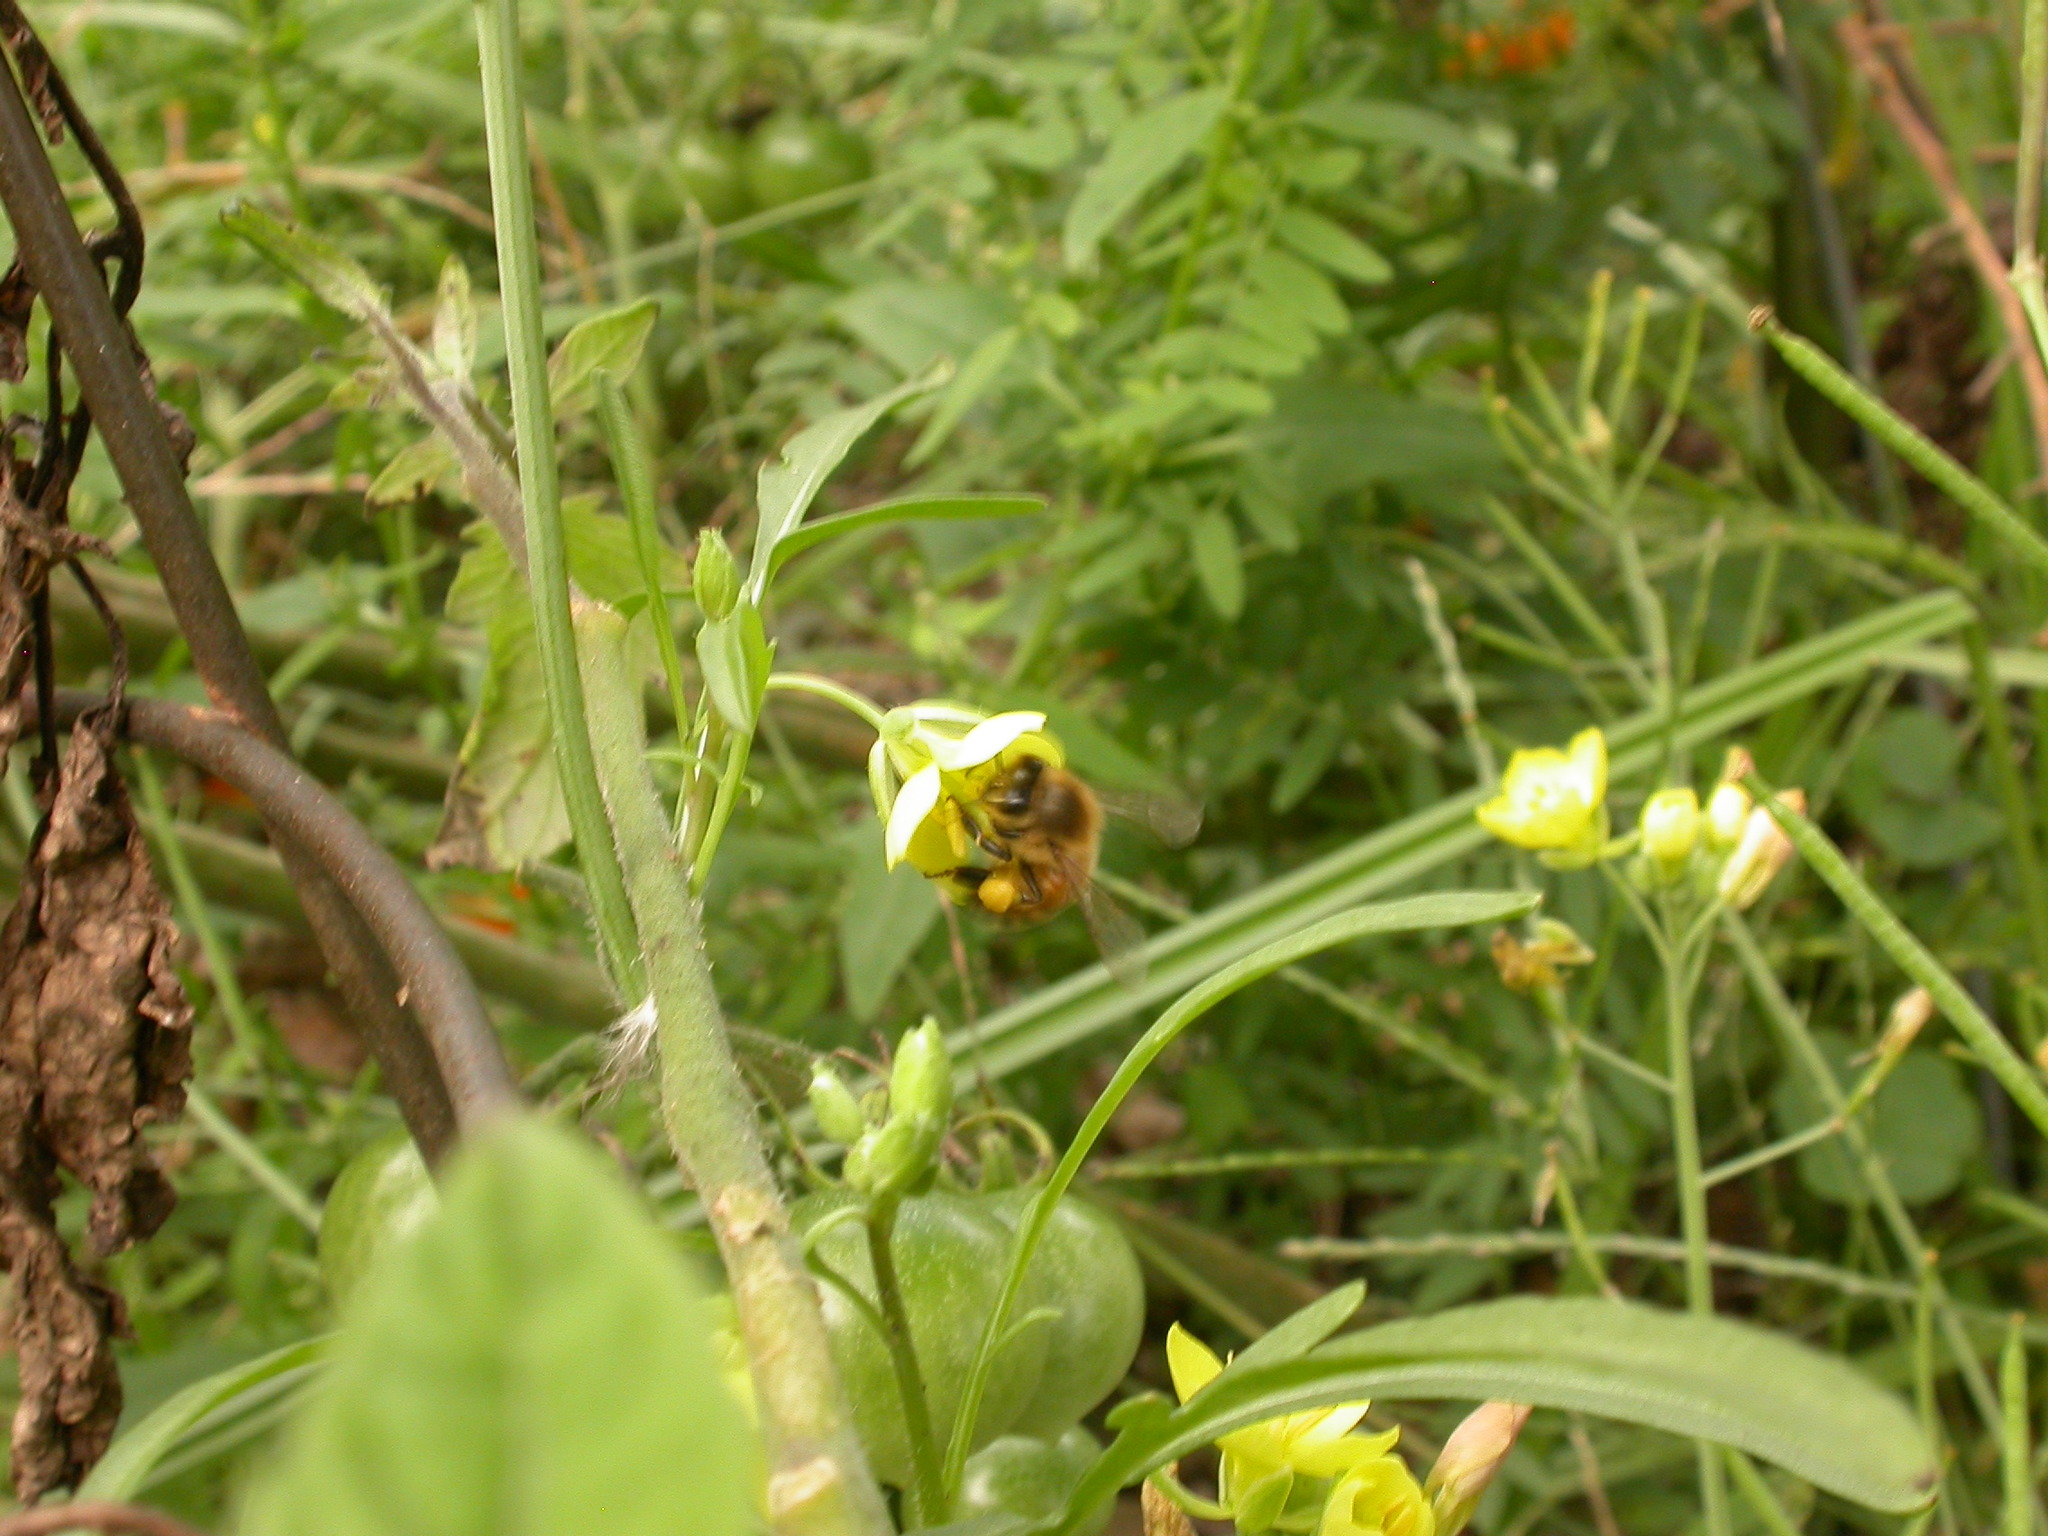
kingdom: Animalia
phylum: Arthropoda
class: Insecta
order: Hymenoptera
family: Apidae
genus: Apis
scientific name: Apis mellifera
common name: Honey bee
